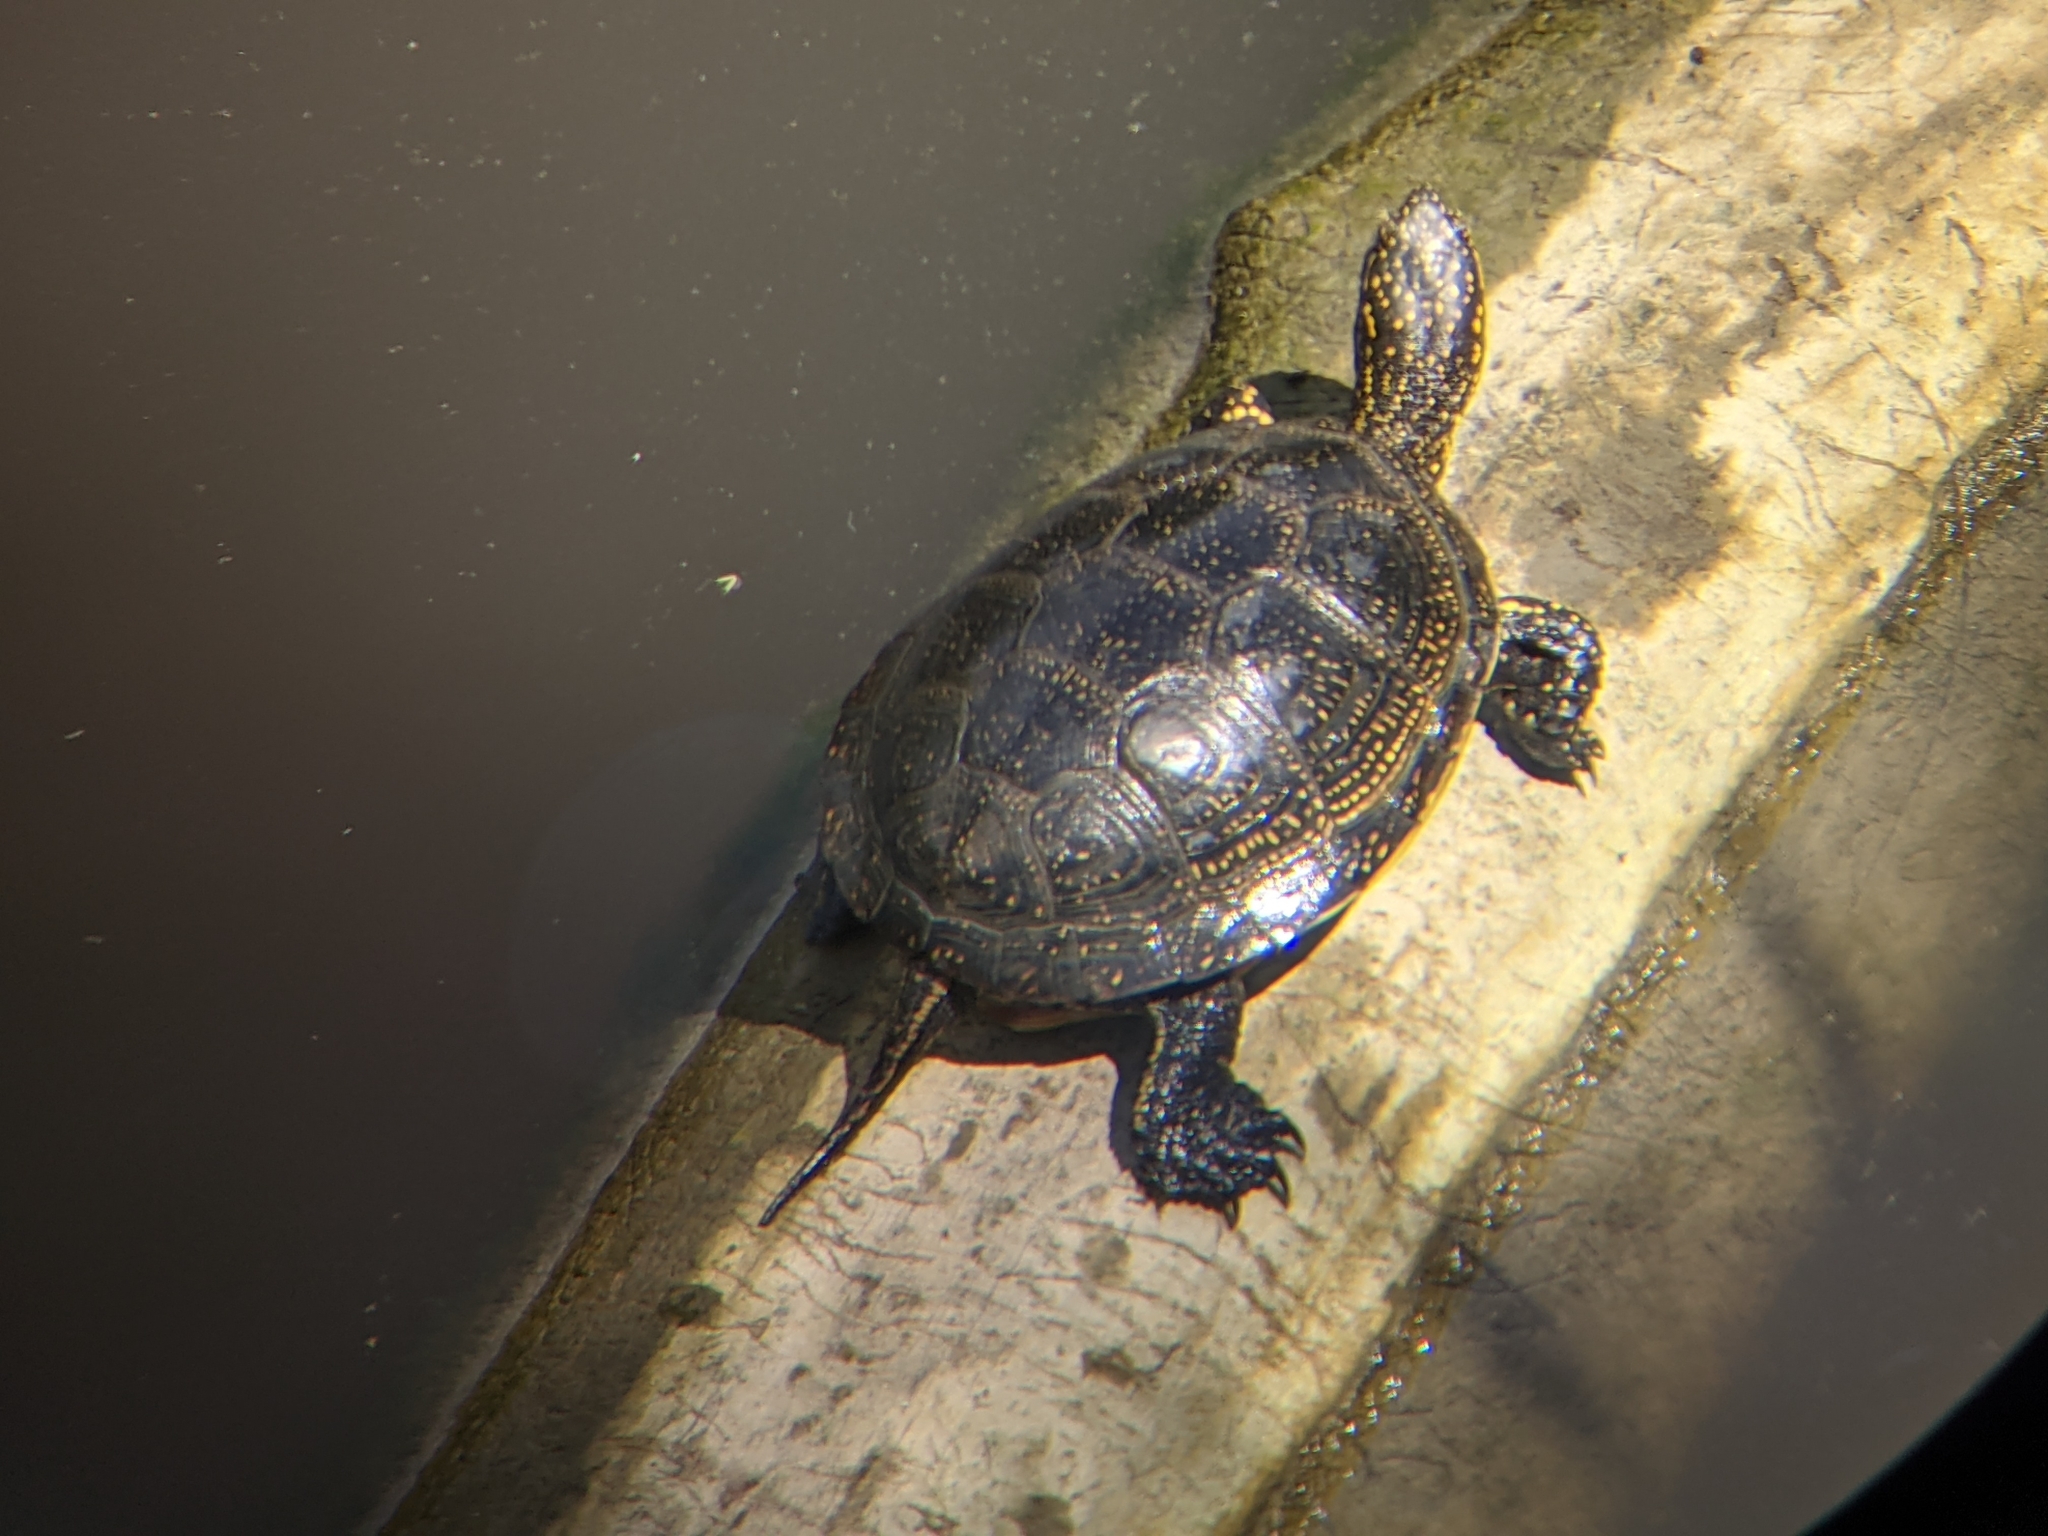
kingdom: Animalia
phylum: Chordata
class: Testudines
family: Emydidae
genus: Emys
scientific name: Emys orbicularis
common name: European pond turtle
